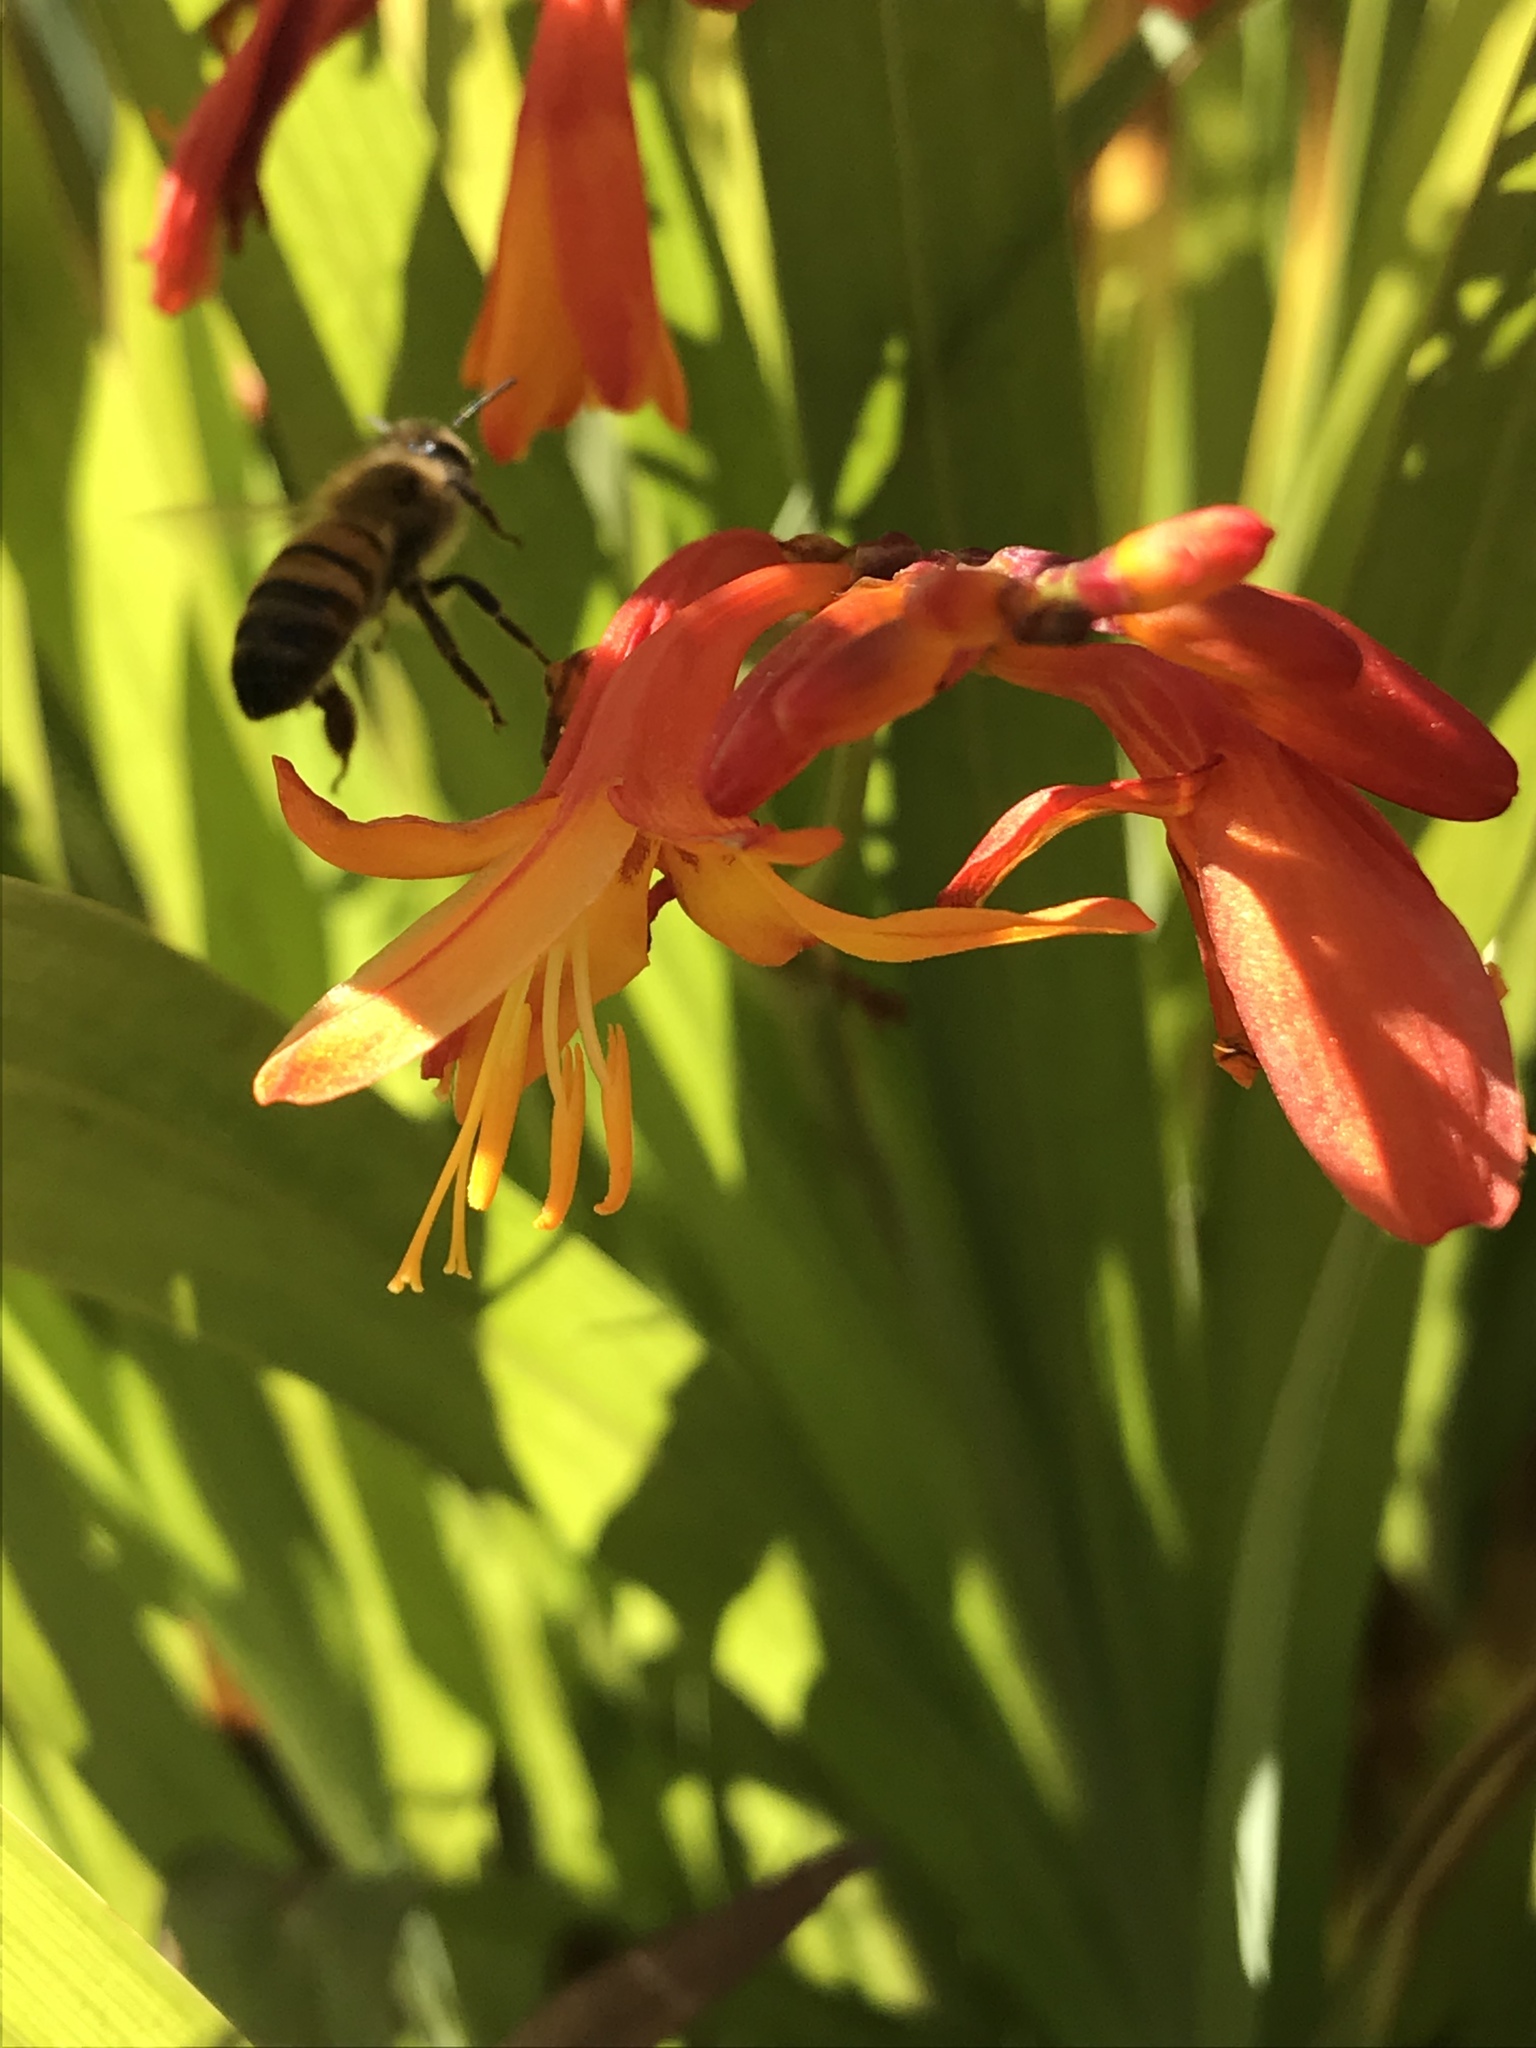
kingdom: Animalia
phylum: Arthropoda
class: Insecta
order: Hymenoptera
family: Apidae
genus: Apis
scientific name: Apis mellifera
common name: Honey bee
